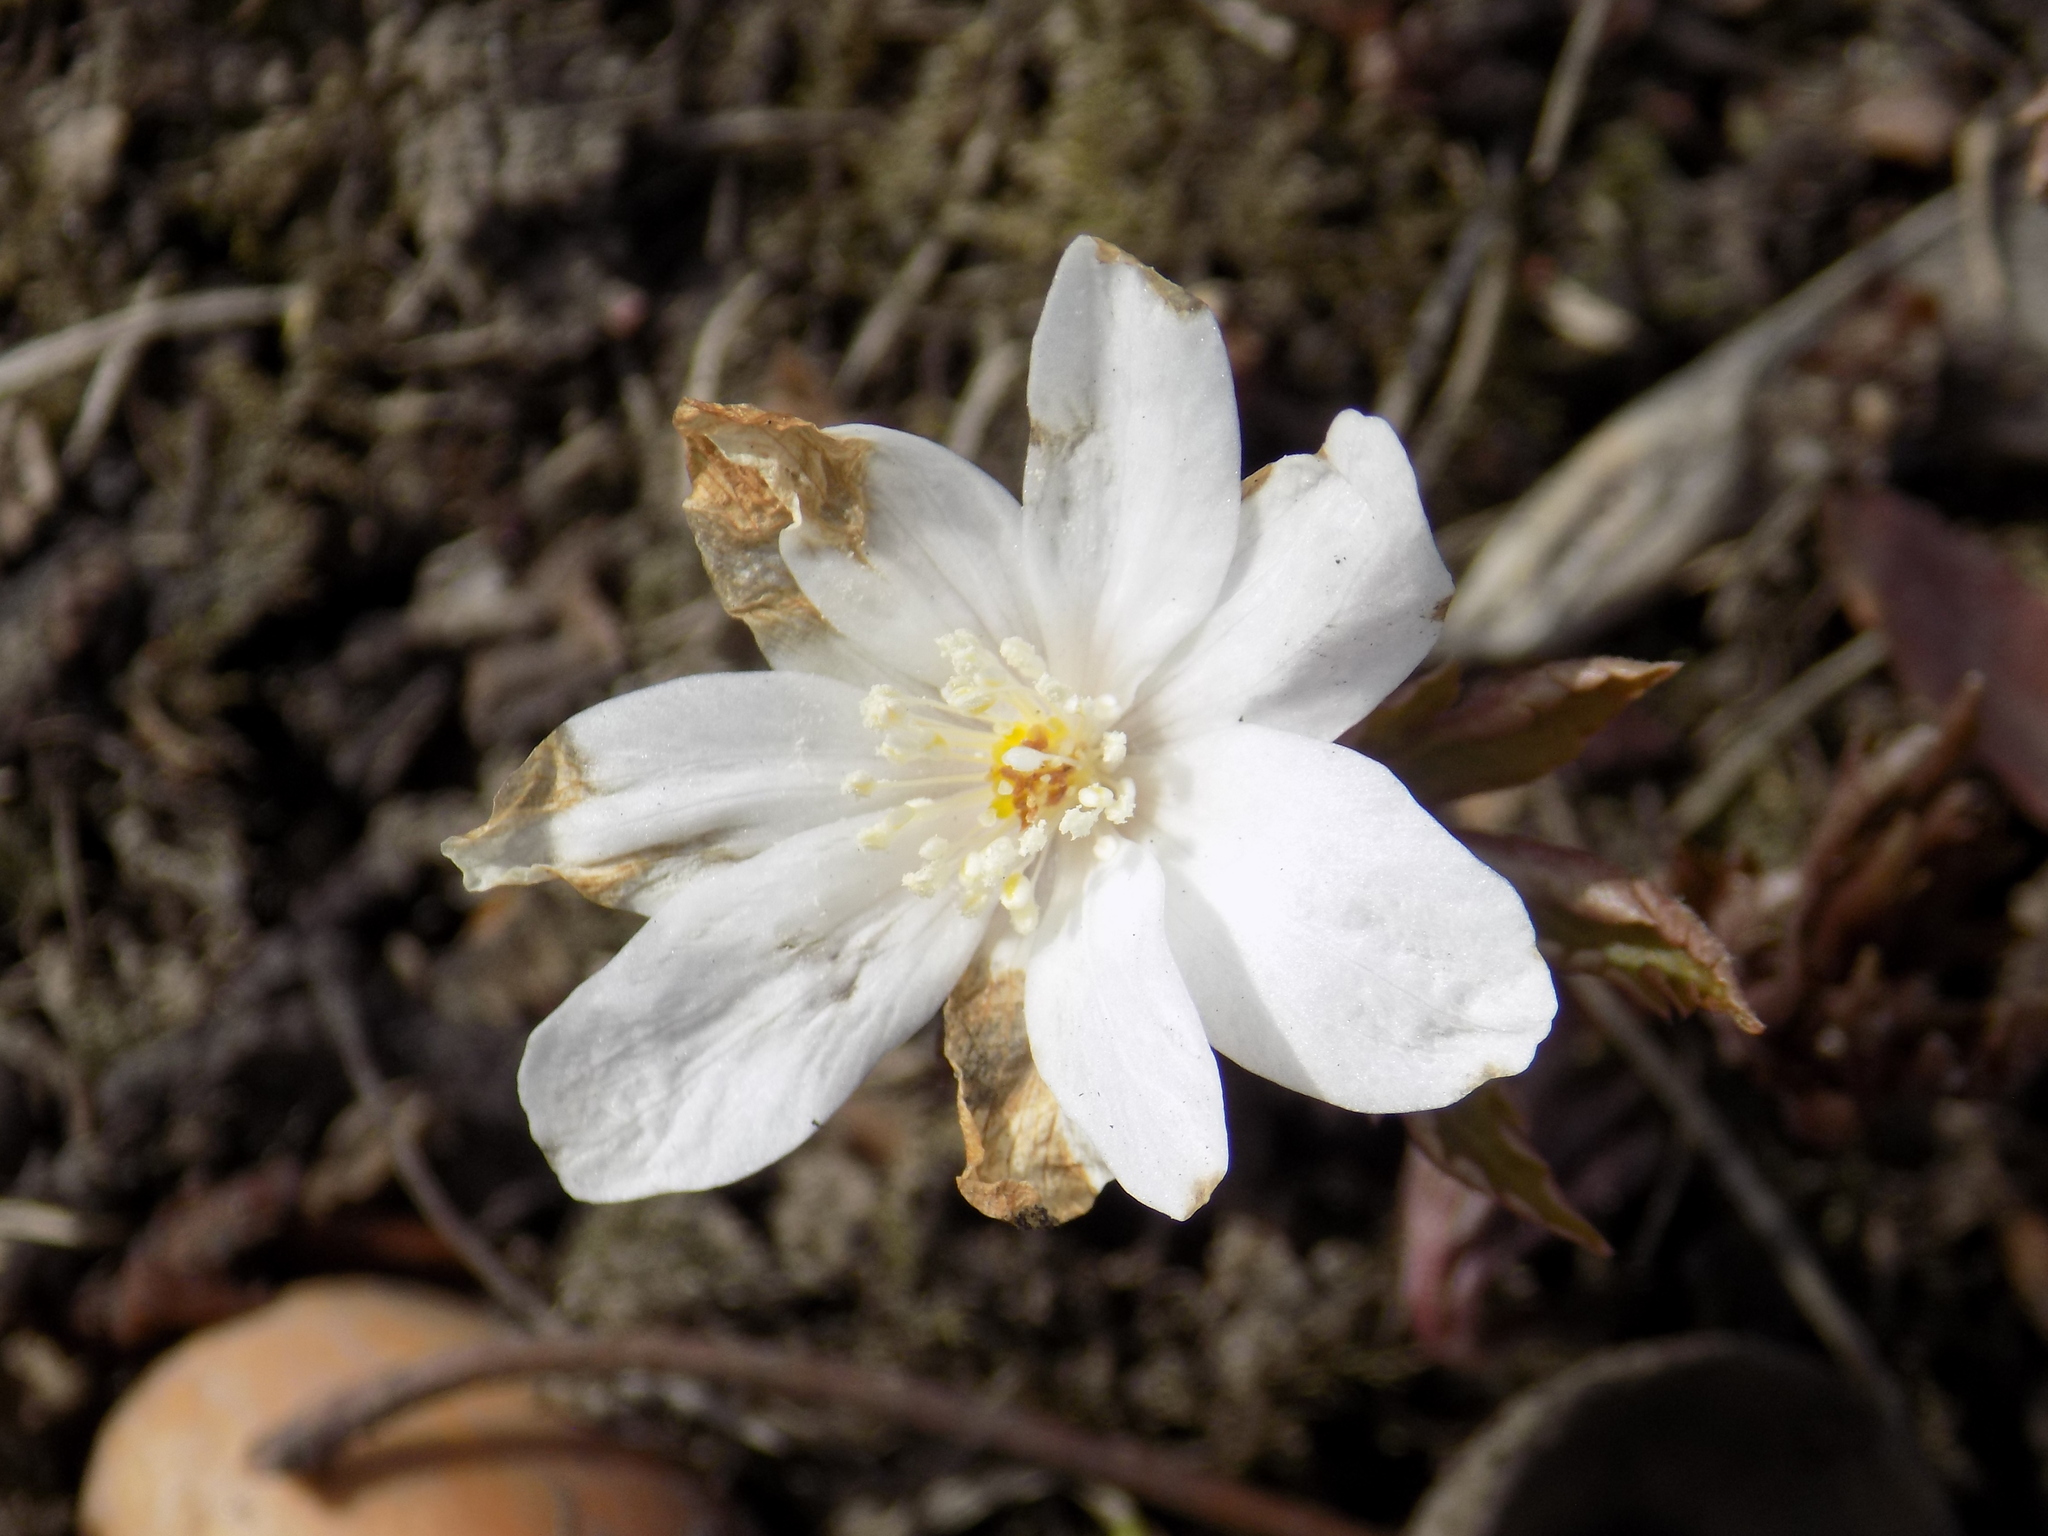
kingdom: Plantae
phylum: Tracheophyta
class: Magnoliopsida
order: Ranunculales
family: Ranunculaceae
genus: Anemone
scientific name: Anemone altaica
